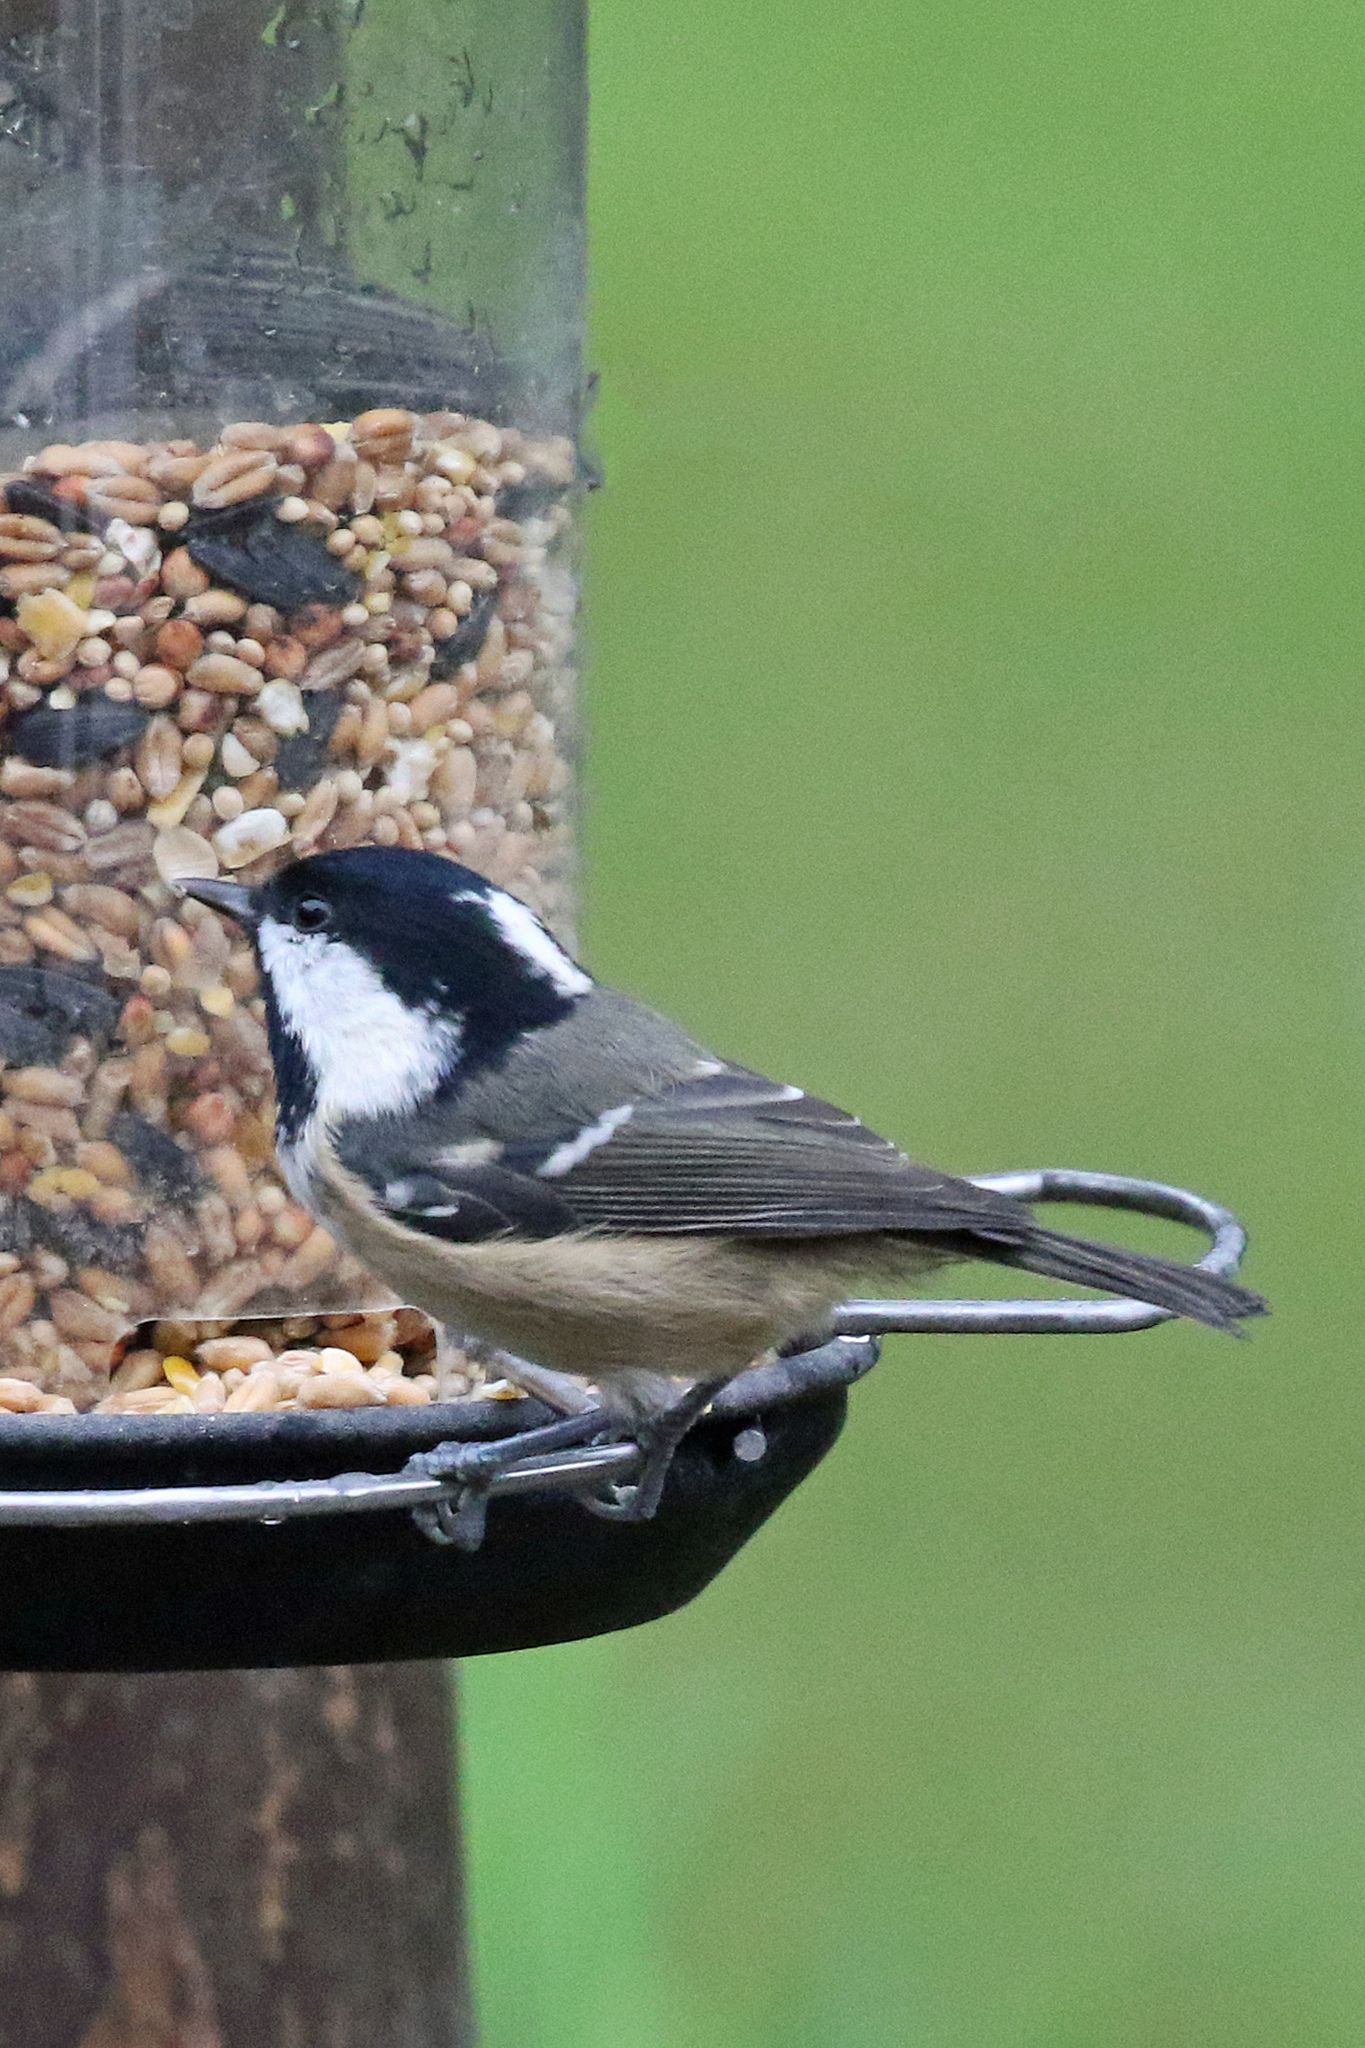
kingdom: Animalia
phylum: Chordata
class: Aves
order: Passeriformes
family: Paridae
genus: Periparus
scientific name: Periparus ater
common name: Coal tit
